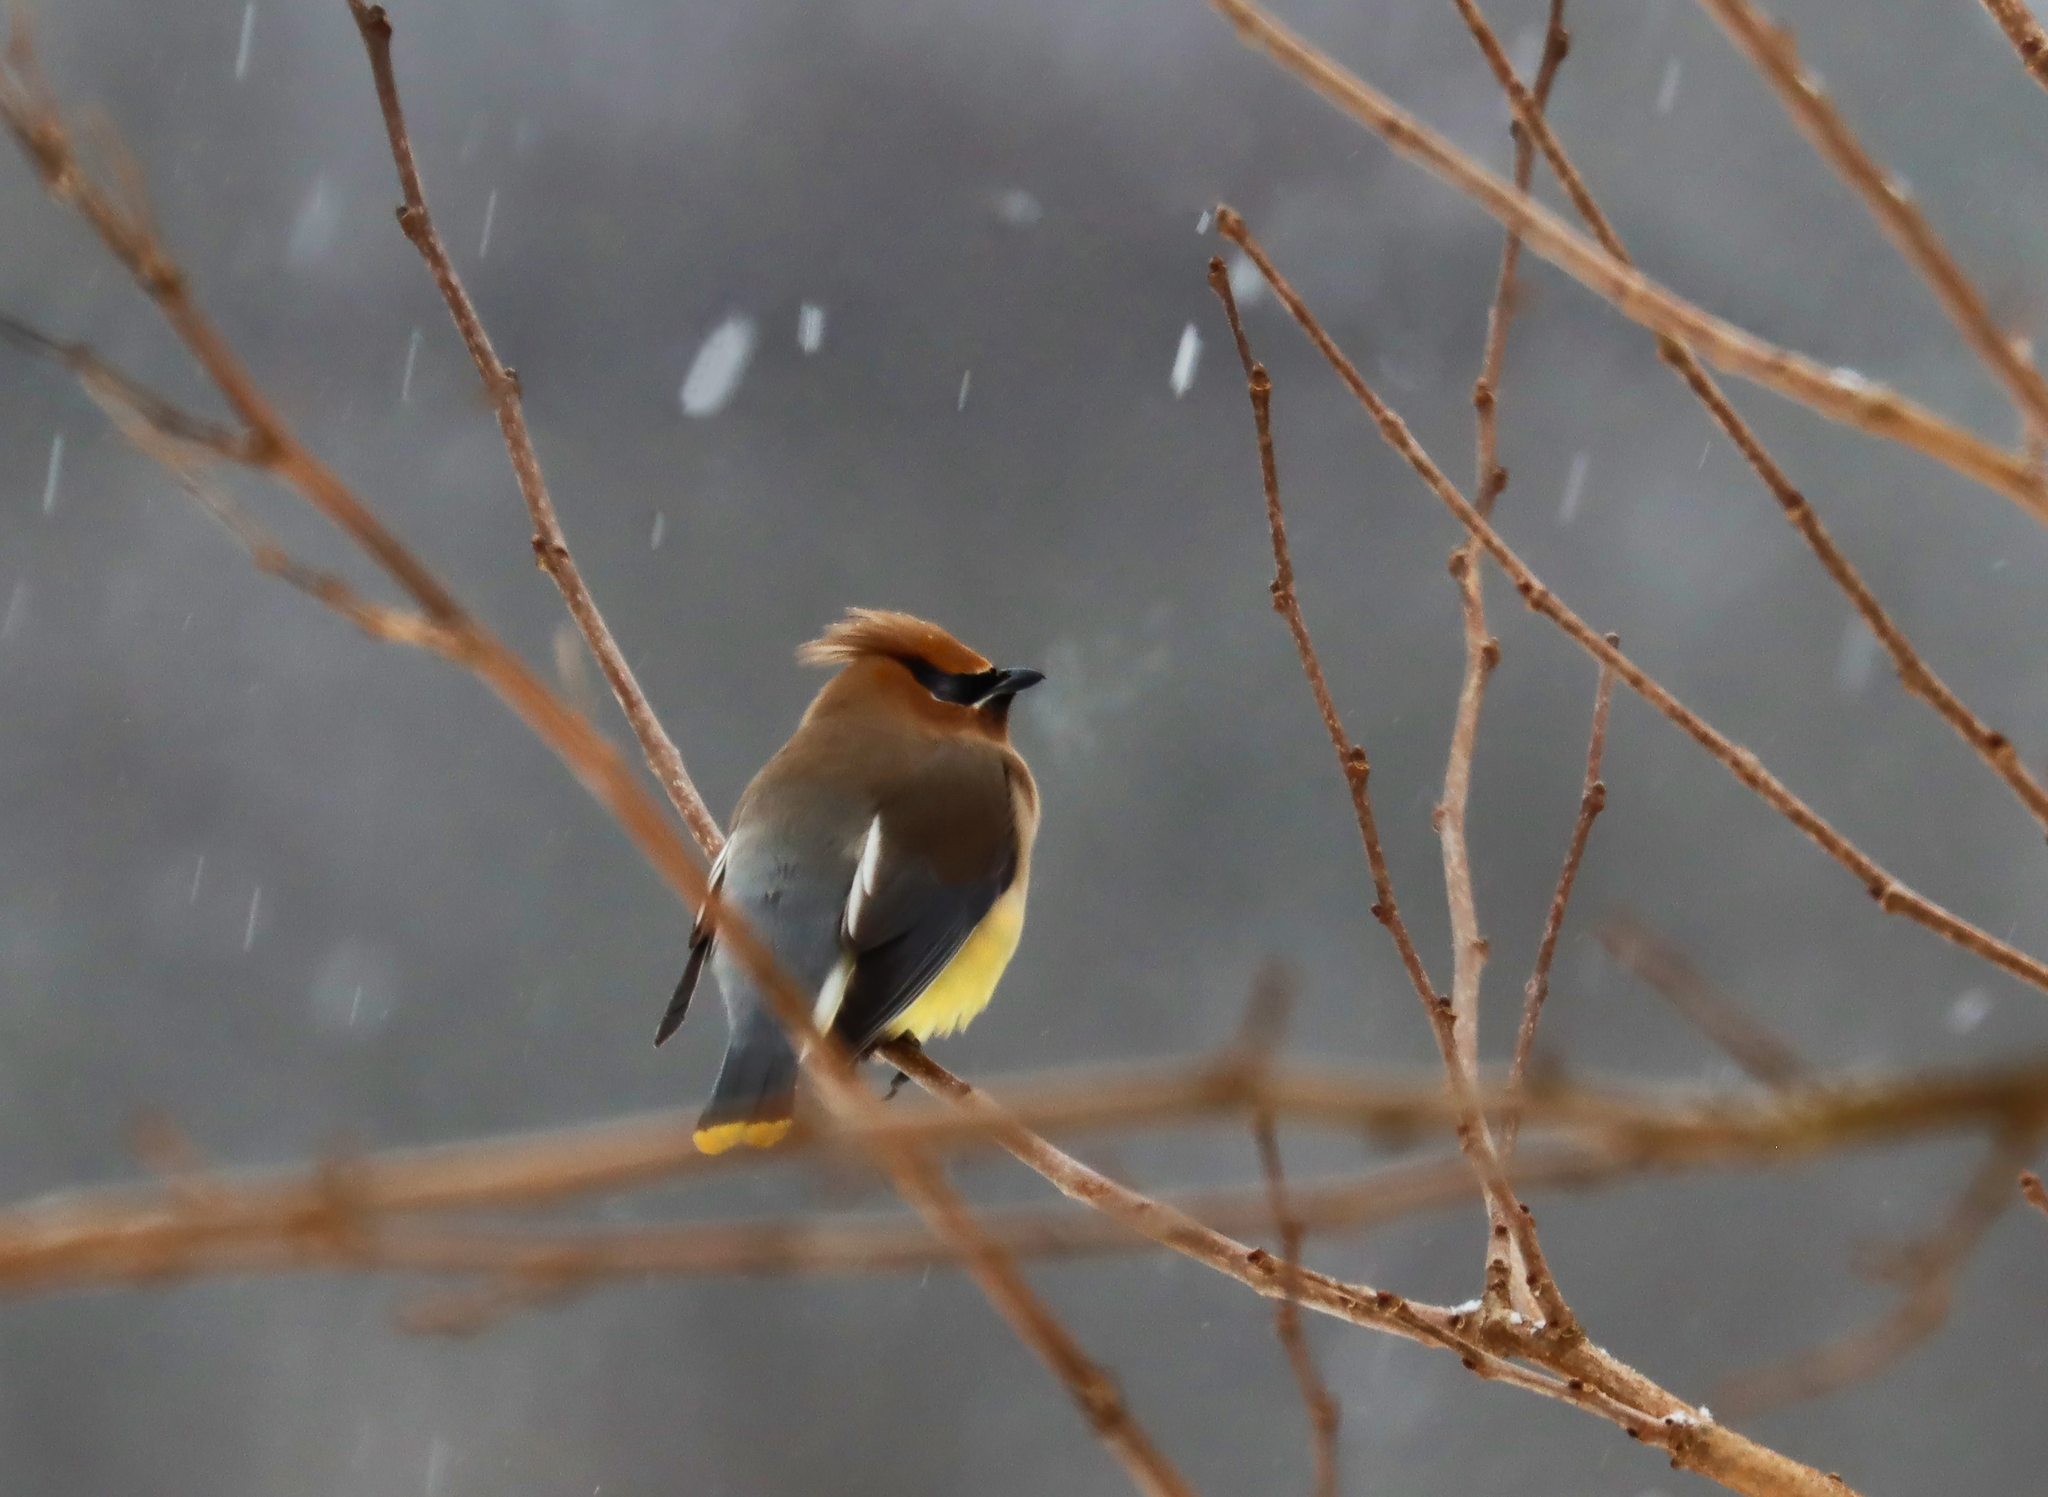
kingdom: Animalia
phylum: Chordata
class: Aves
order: Passeriformes
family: Bombycillidae
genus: Bombycilla
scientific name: Bombycilla cedrorum
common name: Cedar waxwing
